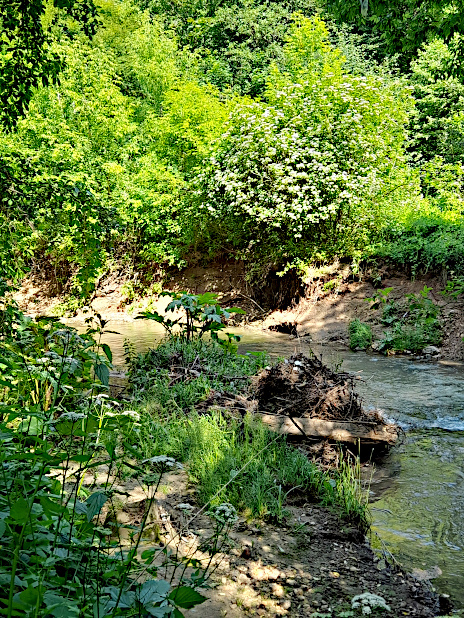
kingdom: Plantae
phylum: Tracheophyta
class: Magnoliopsida
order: Apiales
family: Apiaceae
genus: Heracleum
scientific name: Heracleum sosnowskyi
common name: Sosnowsky's hogweed
